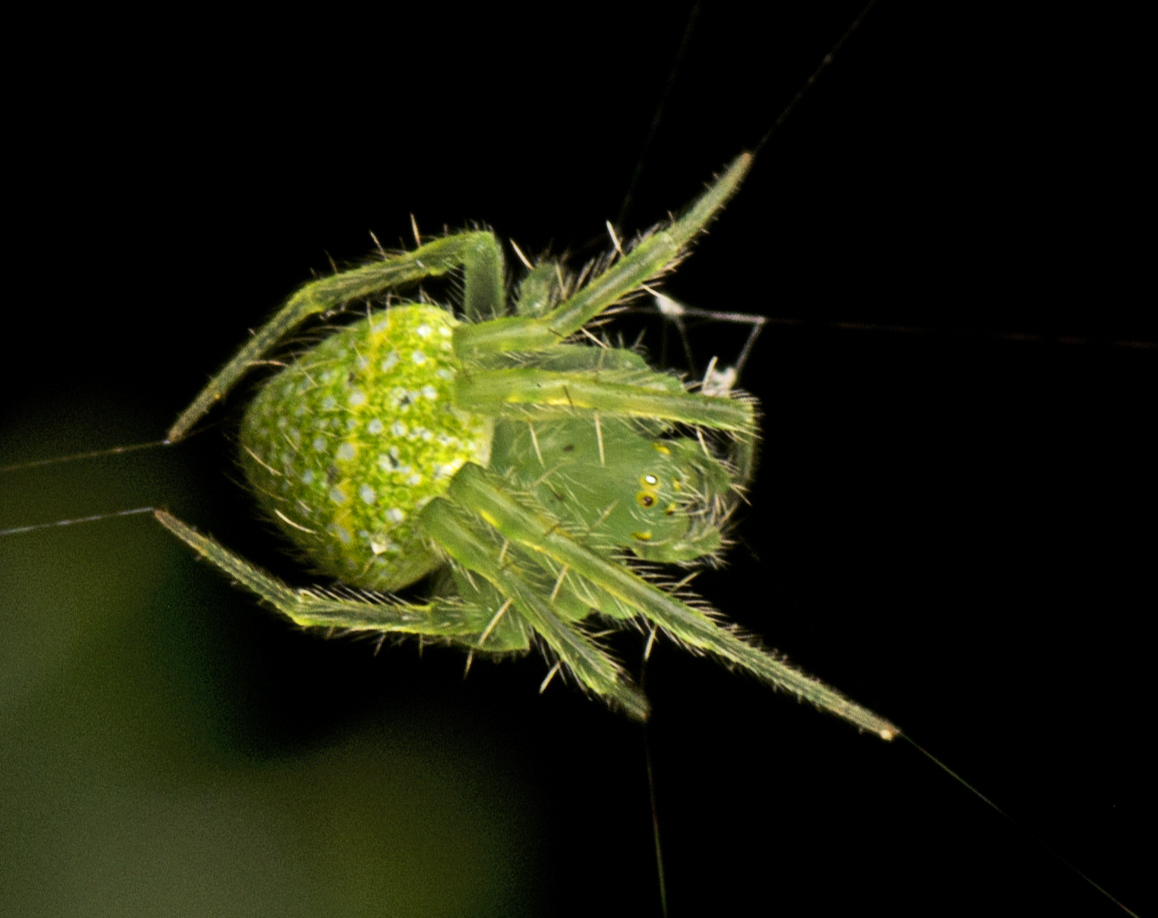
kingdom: Animalia
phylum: Arthropoda
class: Arachnida
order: Araneae
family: Araneidae
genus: Araneus
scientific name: Araneus circulissparsus
